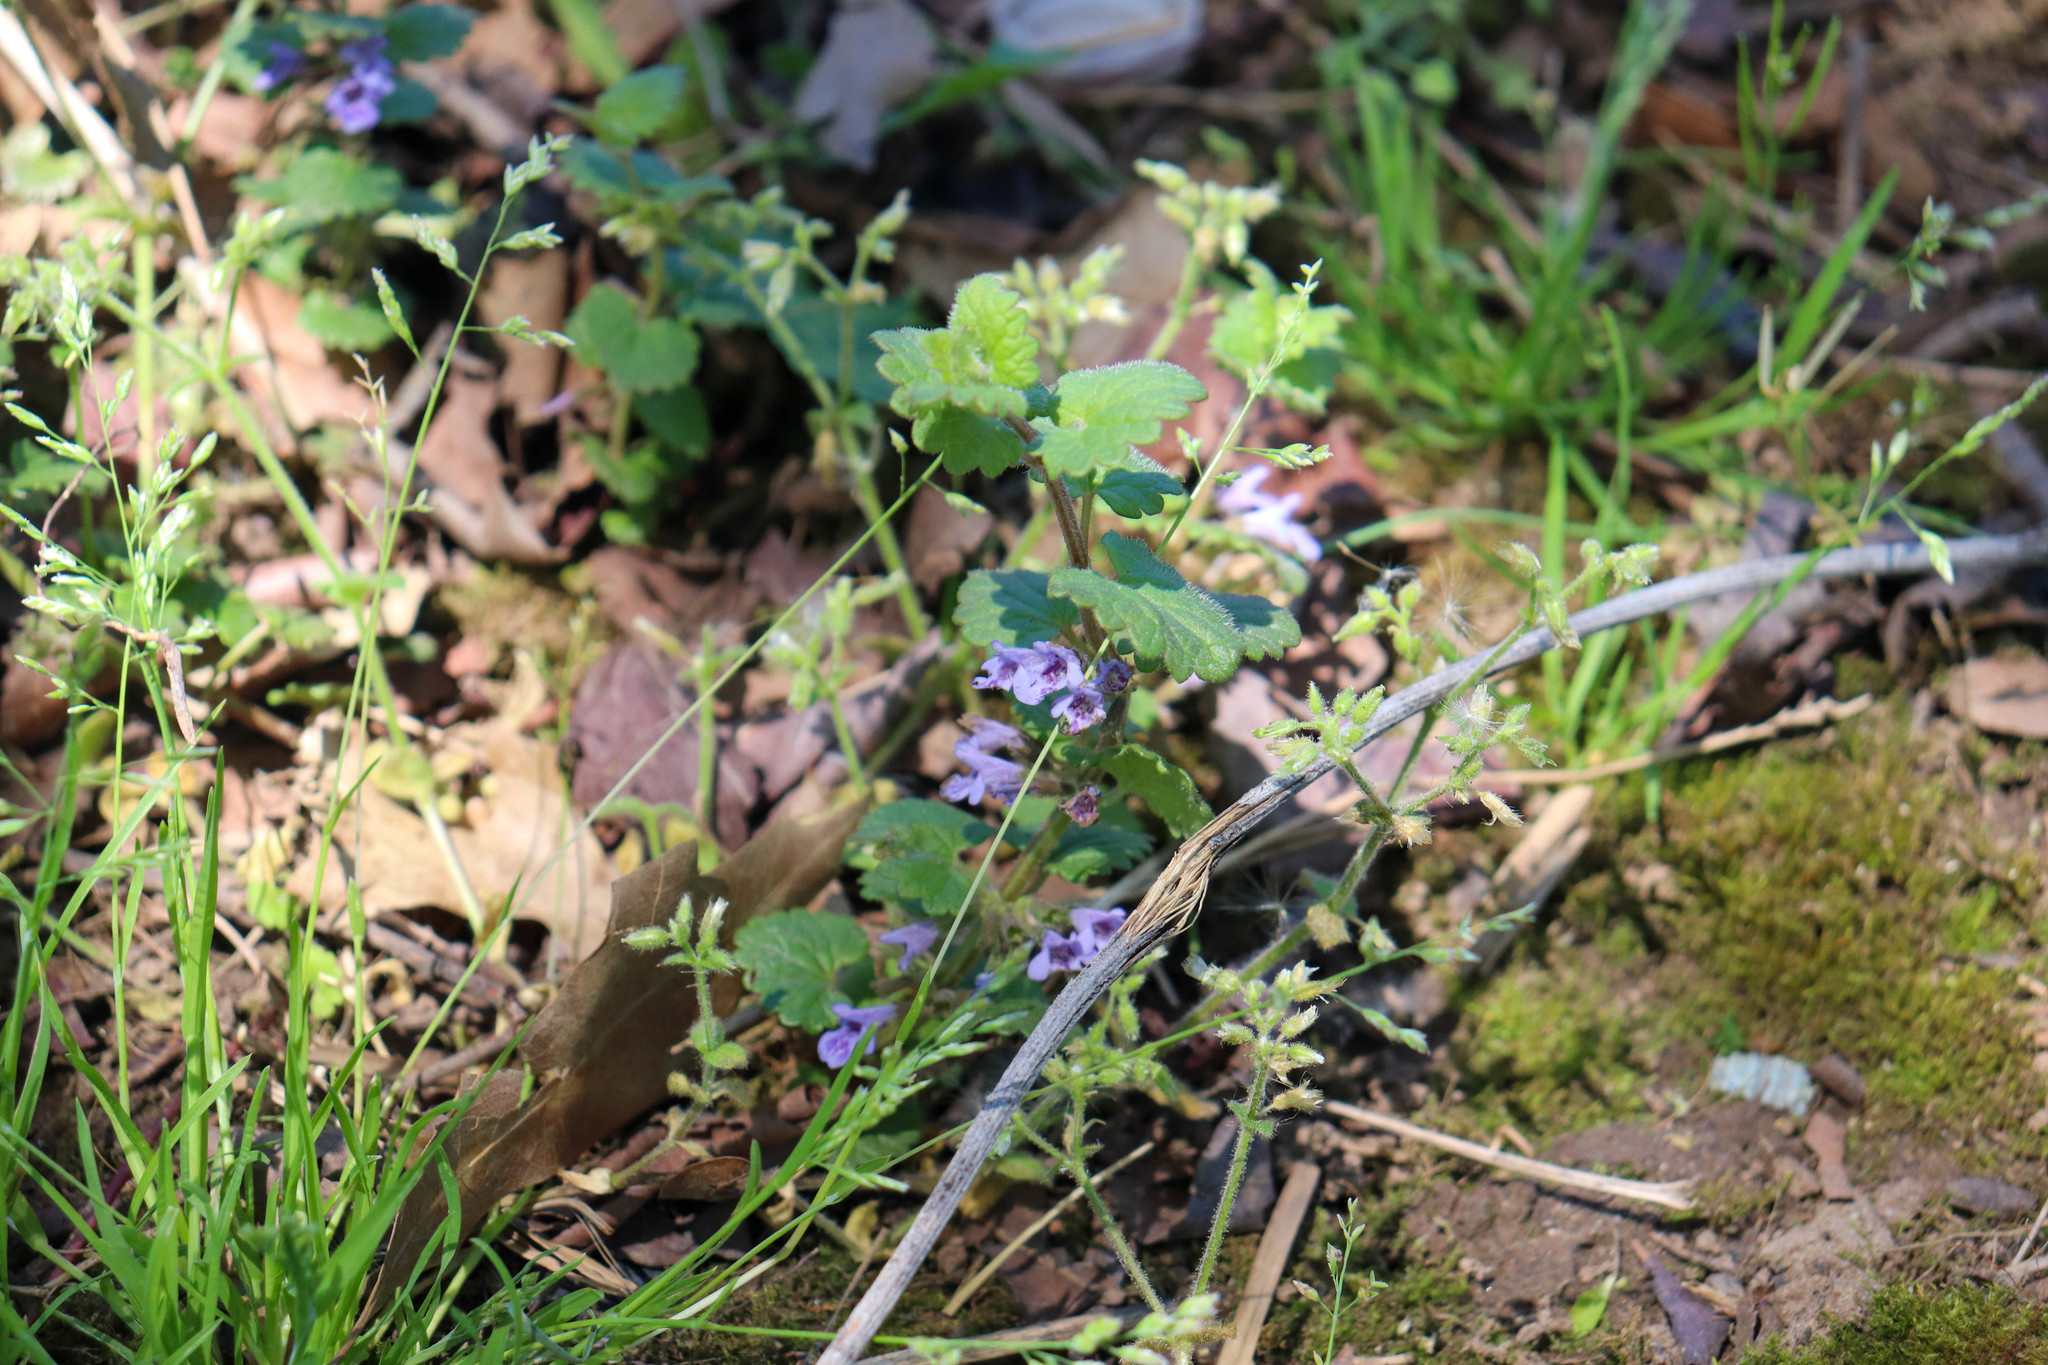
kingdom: Plantae
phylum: Tracheophyta
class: Magnoliopsida
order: Lamiales
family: Lamiaceae
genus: Glechoma
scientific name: Glechoma hederacea
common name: Ground ivy
